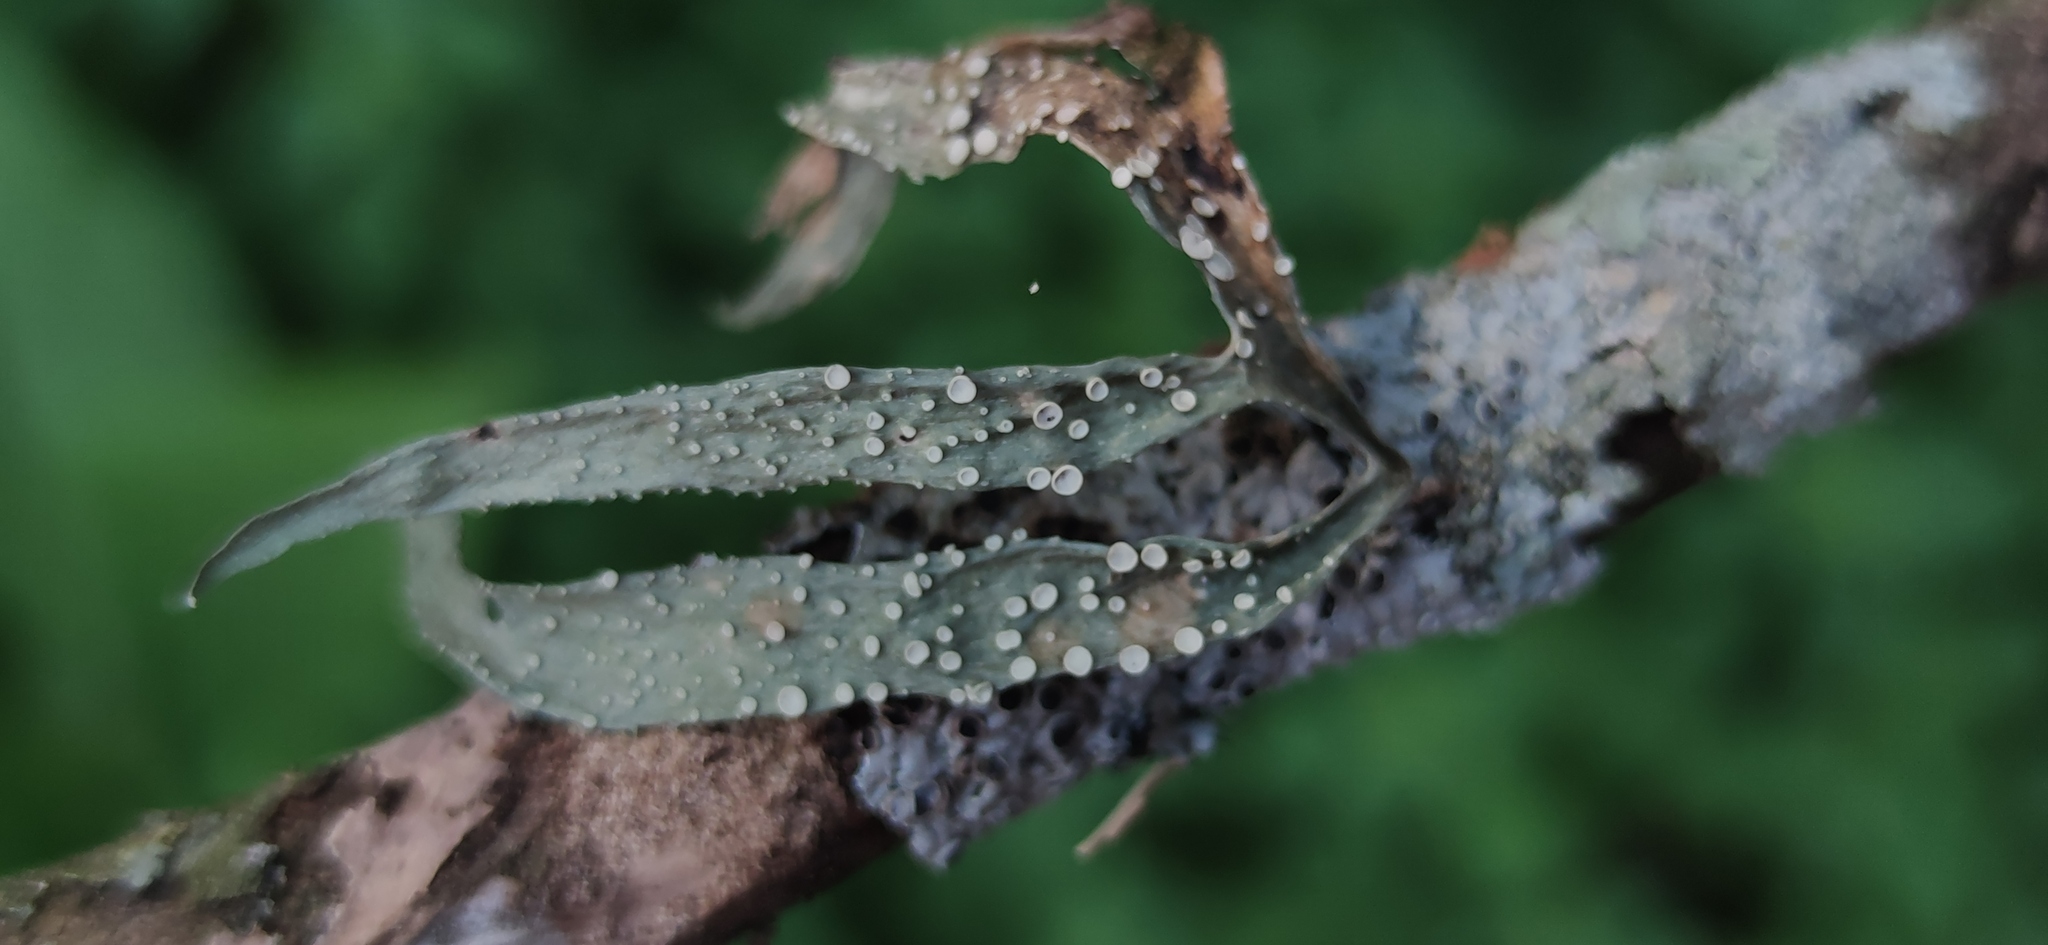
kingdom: Fungi
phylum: Ascomycota
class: Lecanoromycetes
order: Lecanorales
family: Ramalinaceae
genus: Ramalina
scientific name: Ramalina celastri
